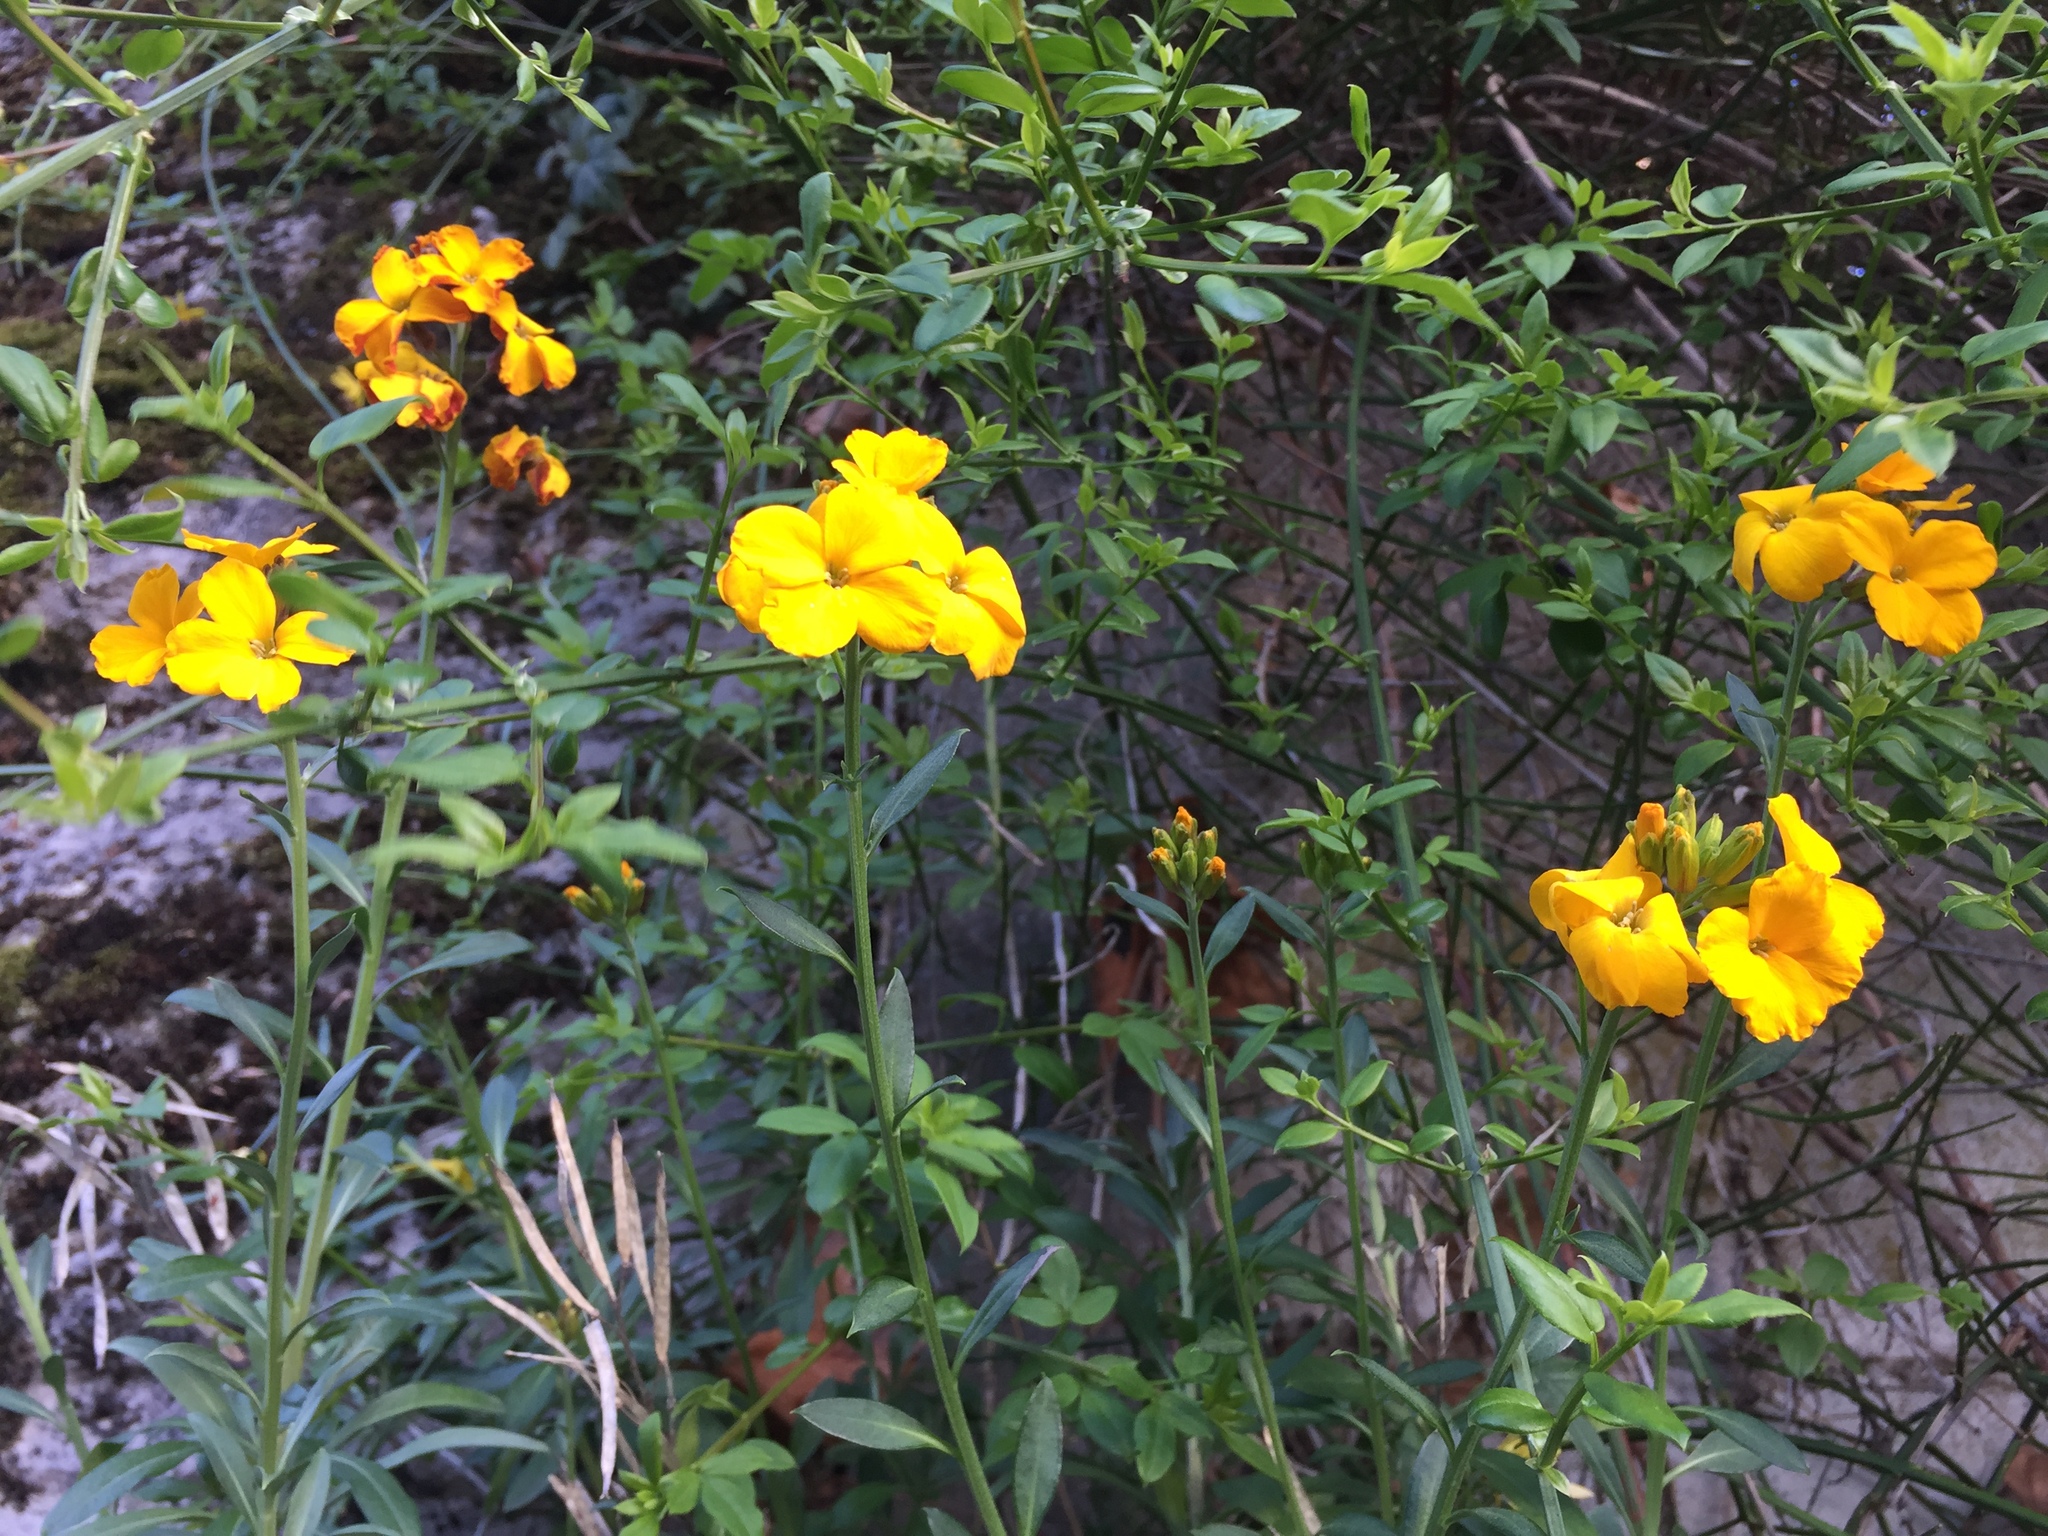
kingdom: Plantae
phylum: Tracheophyta
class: Magnoliopsida
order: Brassicales
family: Brassicaceae
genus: Erysimum
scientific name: Erysimum cheiri
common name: Wallflower
